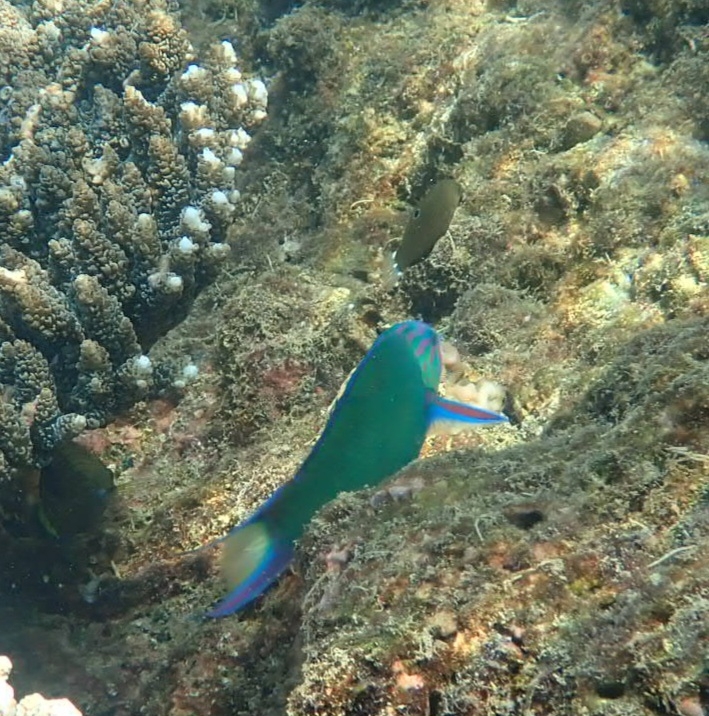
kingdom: Animalia
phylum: Chordata
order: Perciformes
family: Labridae
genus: Thalassoma
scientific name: Thalassoma lunare
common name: Blue wrasse
